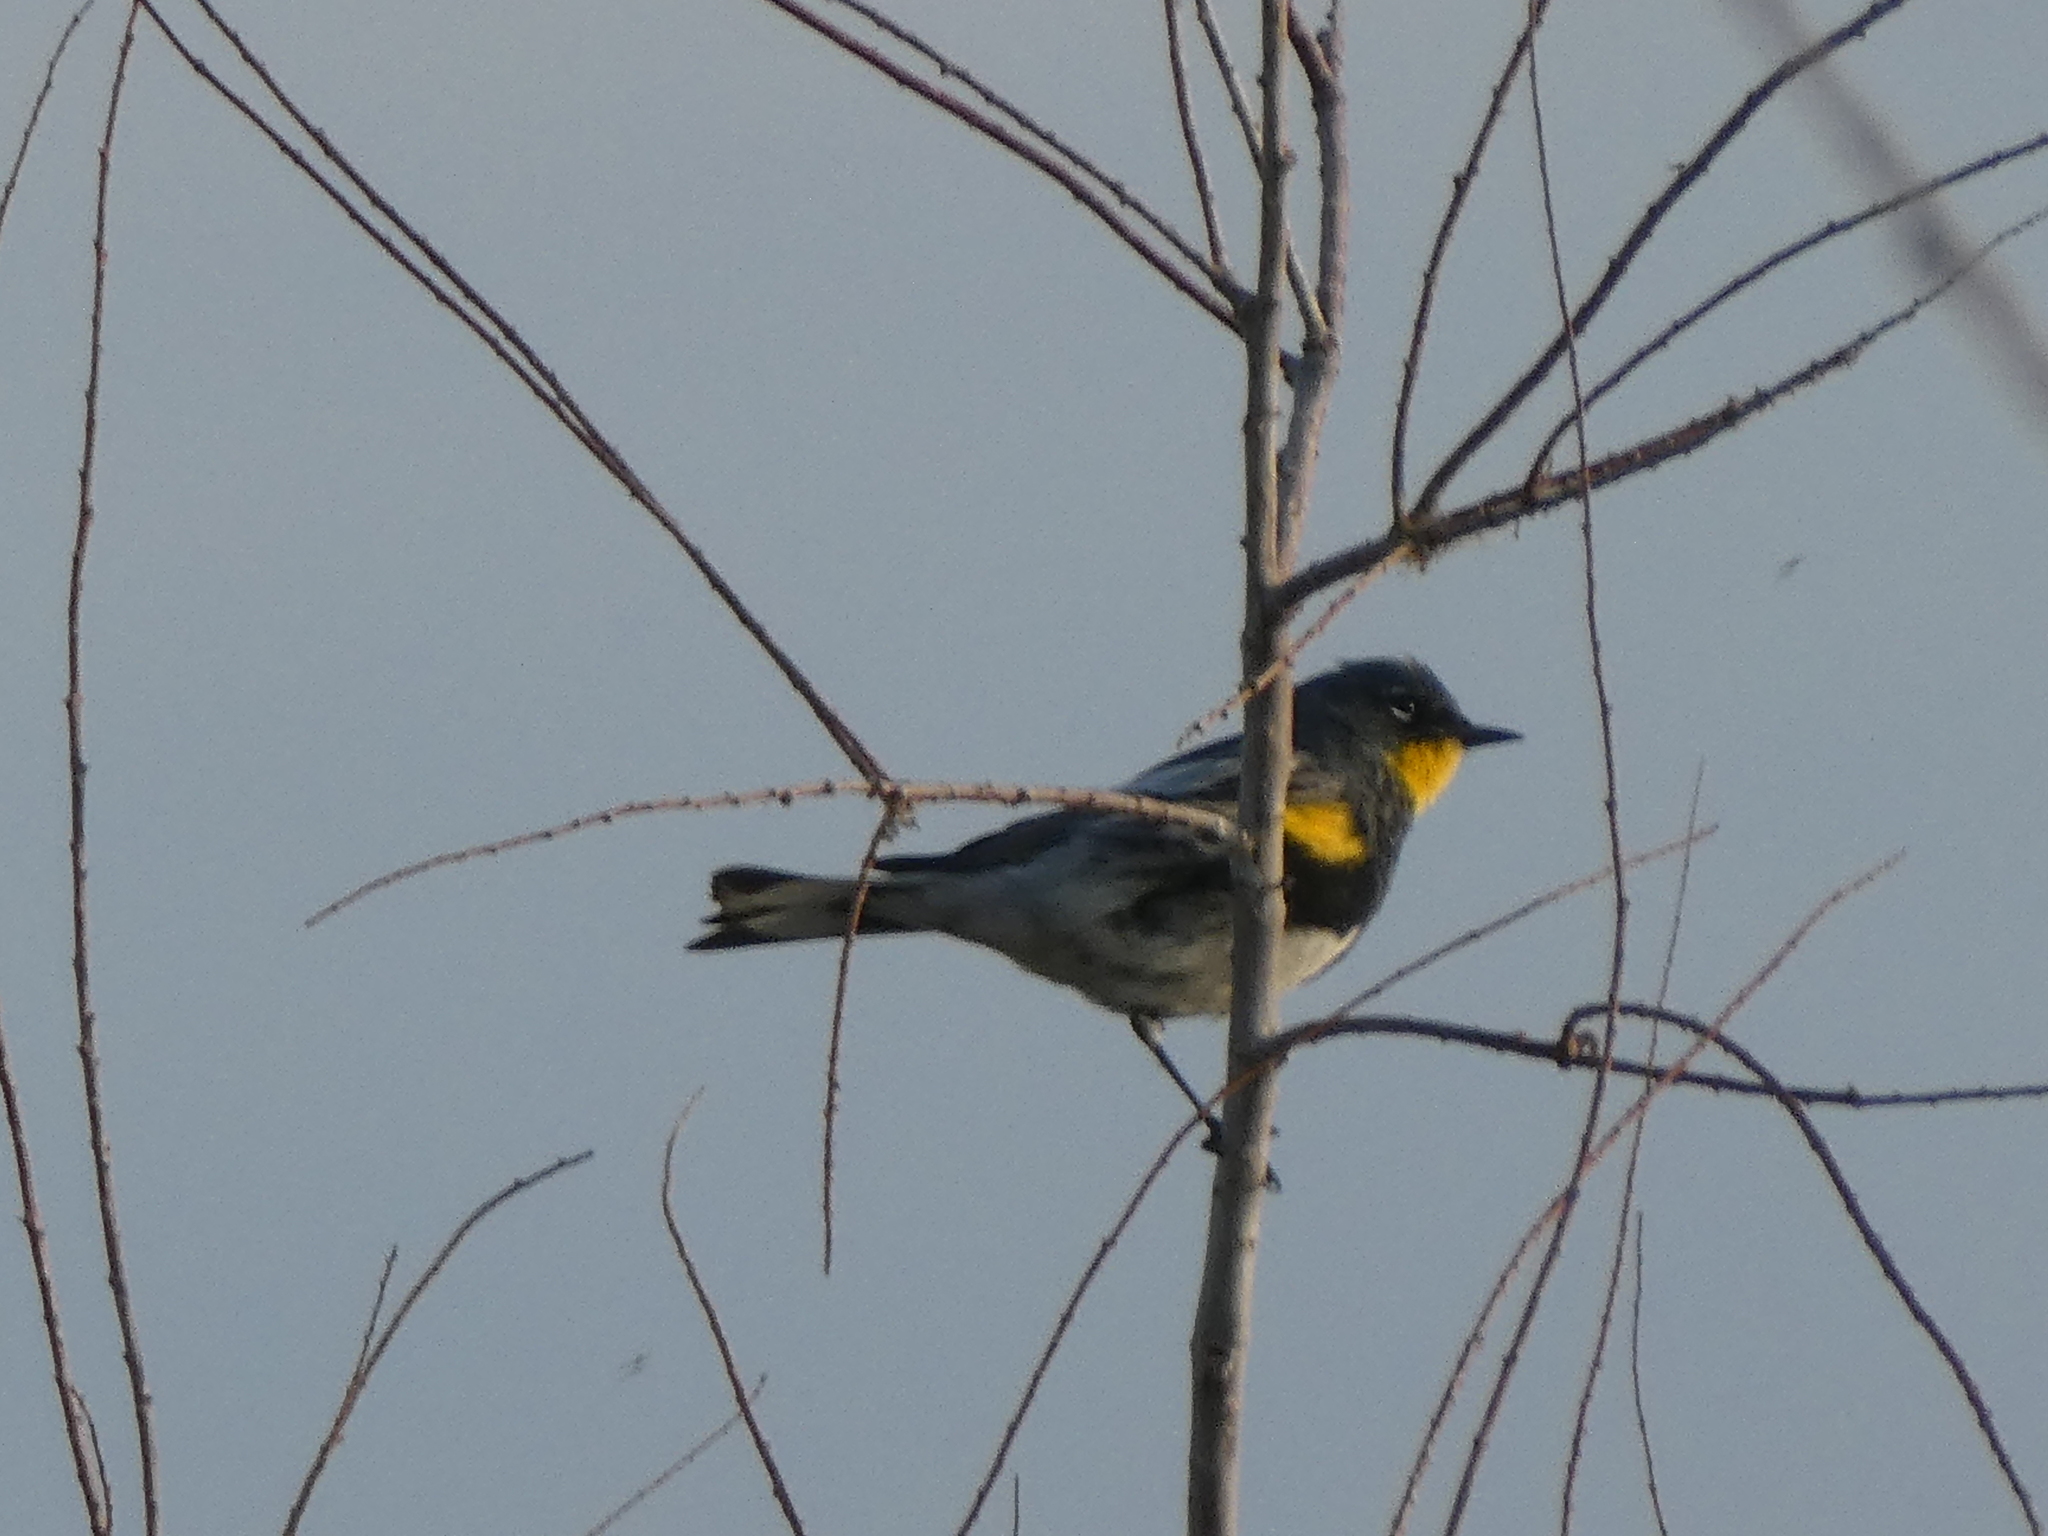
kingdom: Animalia
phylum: Chordata
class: Aves
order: Passeriformes
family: Parulidae
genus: Setophaga
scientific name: Setophaga auduboni
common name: Audubon's warbler
